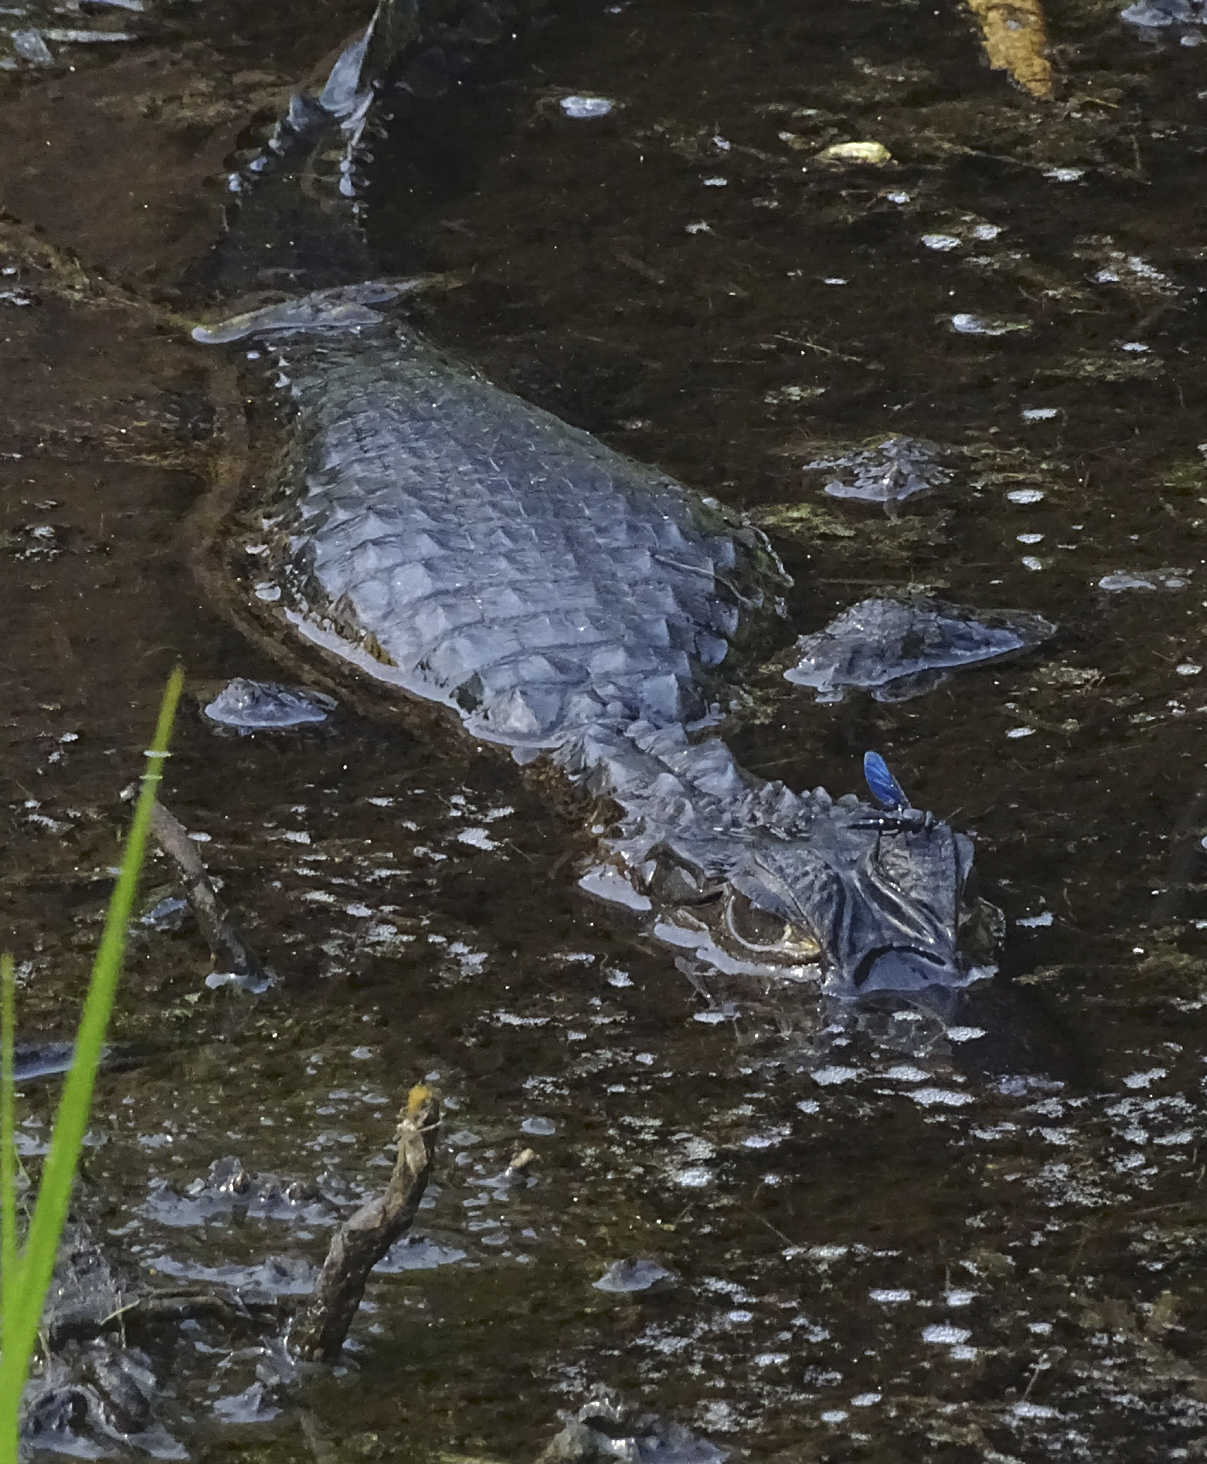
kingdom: Animalia
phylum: Chordata
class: Crocodylia
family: Alligatoridae
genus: Caiman
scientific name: Caiman crocodilus
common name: Common caiman
